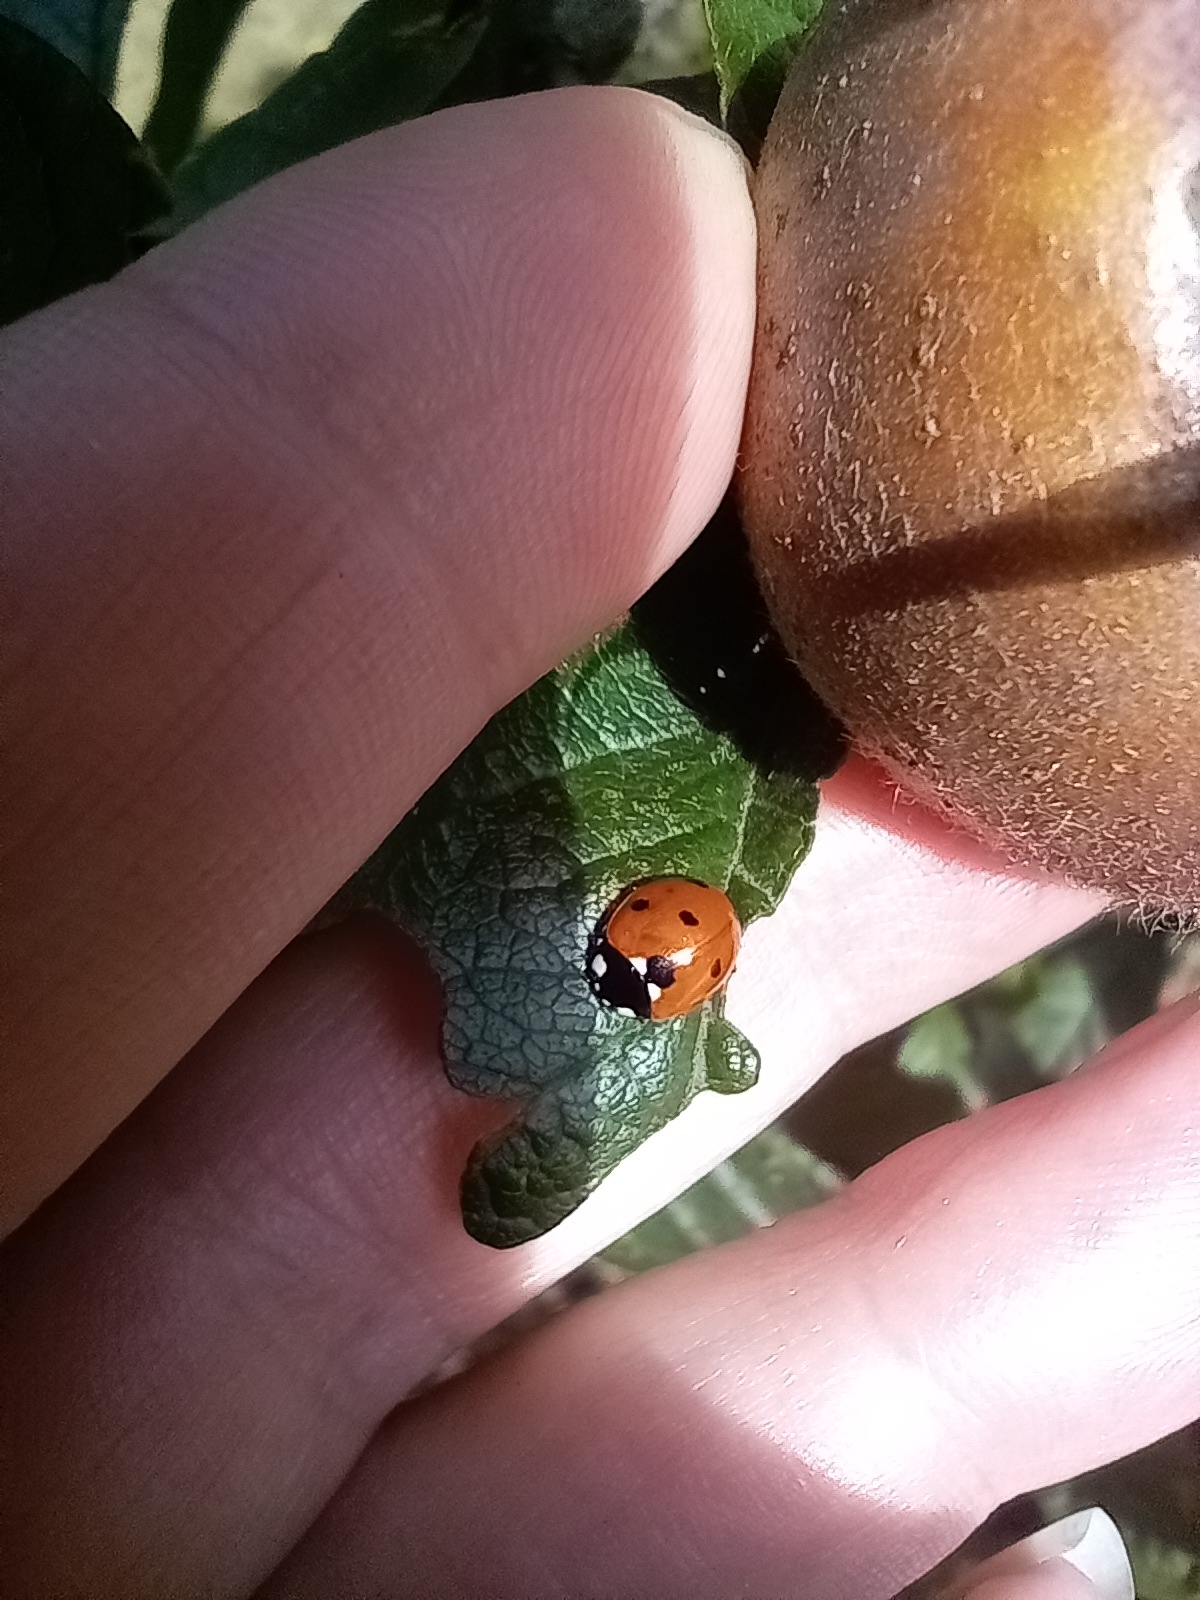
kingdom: Animalia
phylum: Arthropoda
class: Insecta
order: Coleoptera
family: Coccinellidae
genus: Coccinella
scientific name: Coccinella septempunctata
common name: Sevenspotted lady beetle
